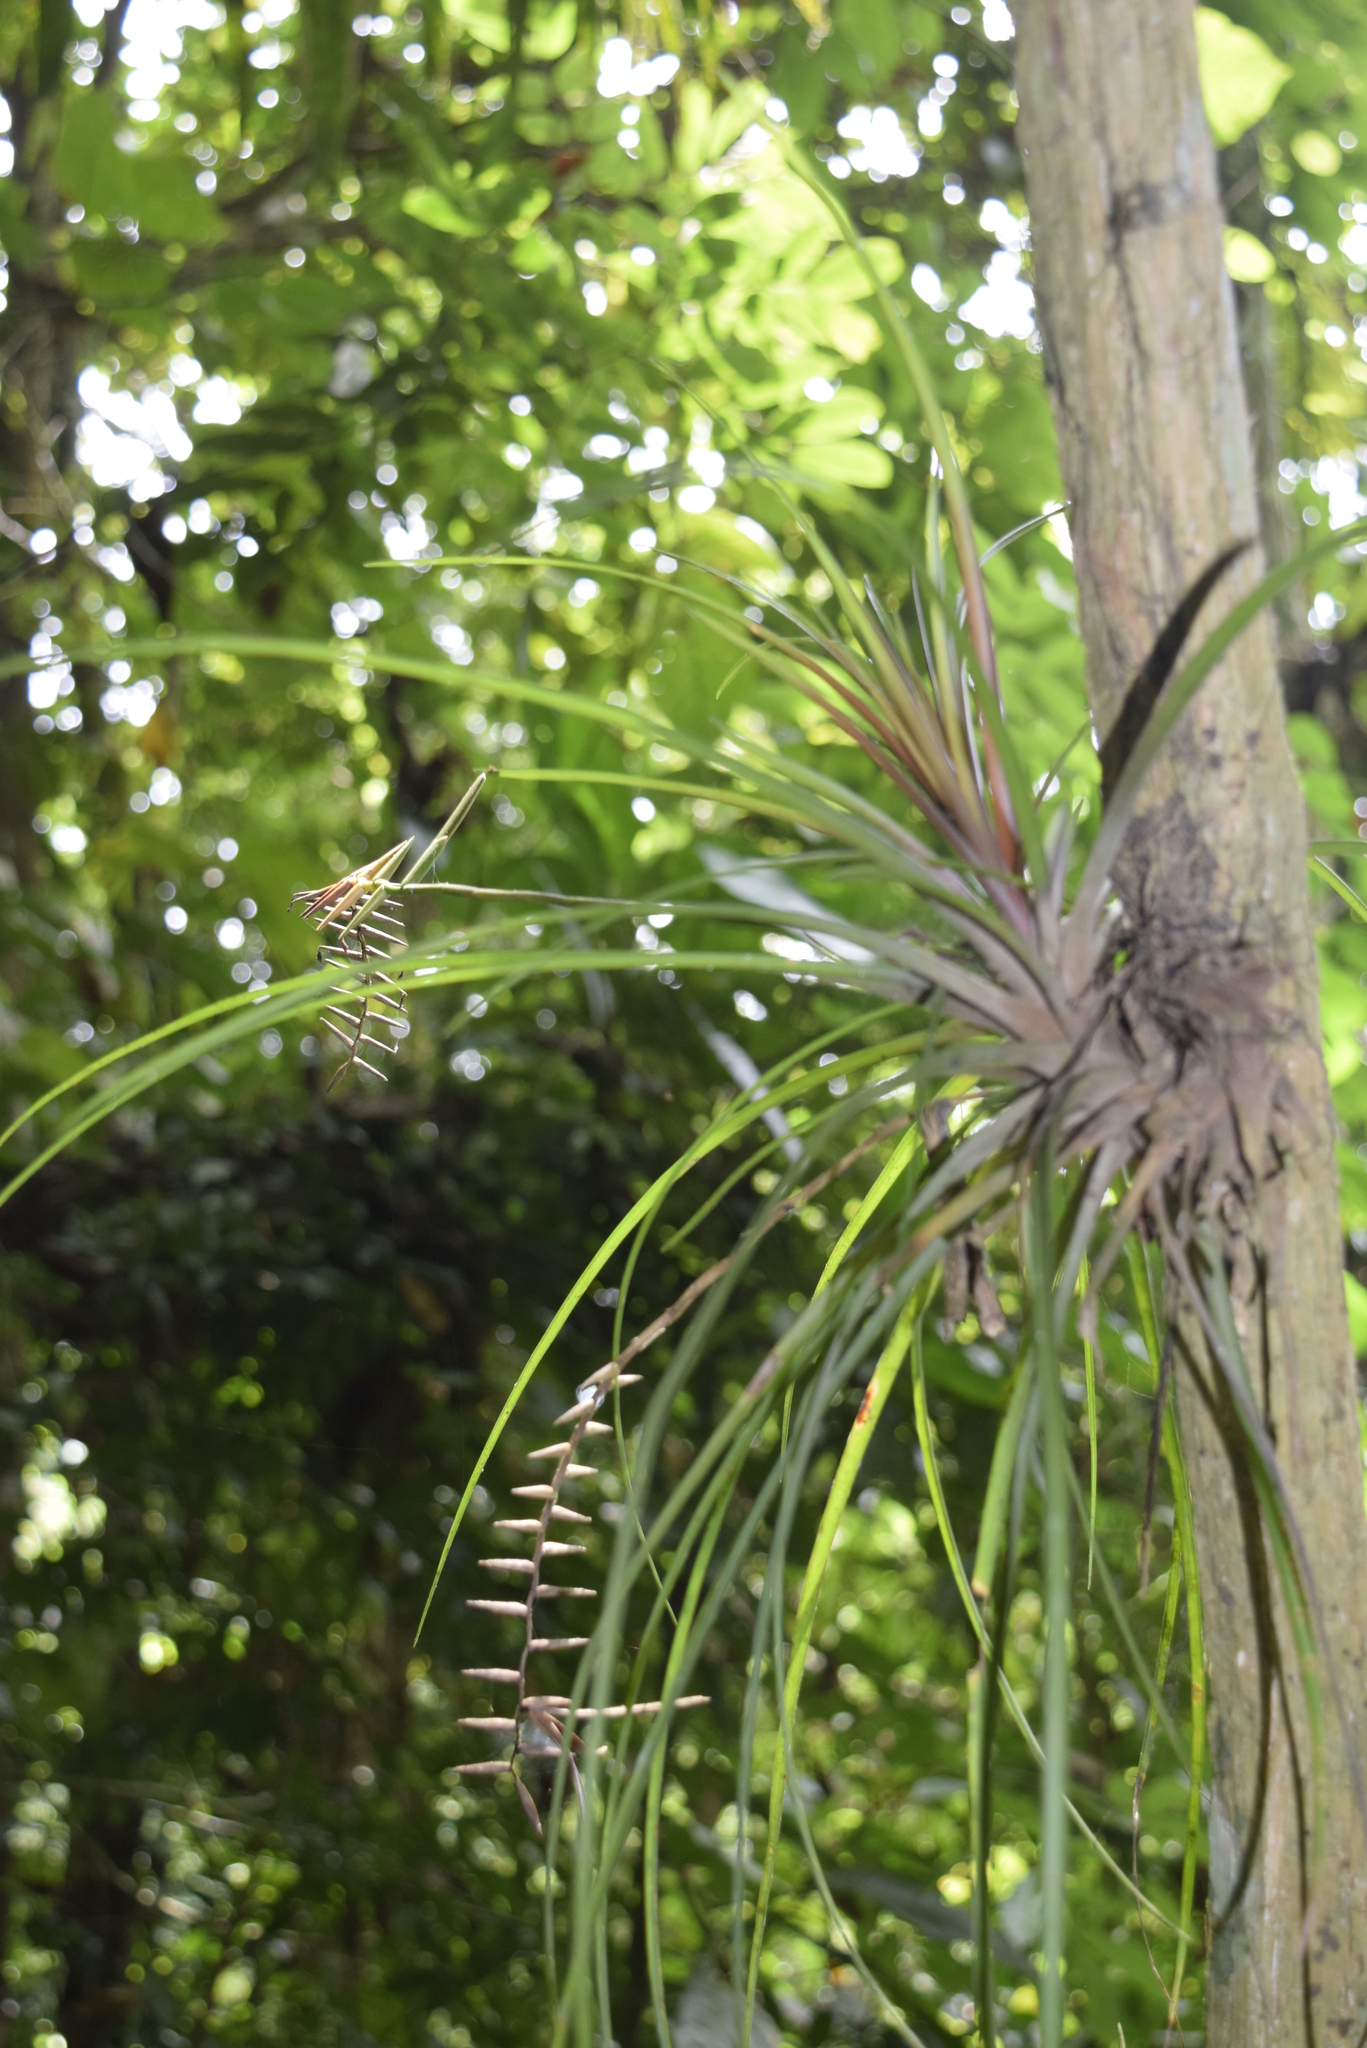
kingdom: Plantae
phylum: Tracheophyta
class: Liliopsida
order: Poales
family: Bromeliaceae
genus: Lemeltonia
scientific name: Lemeltonia narthecioides
